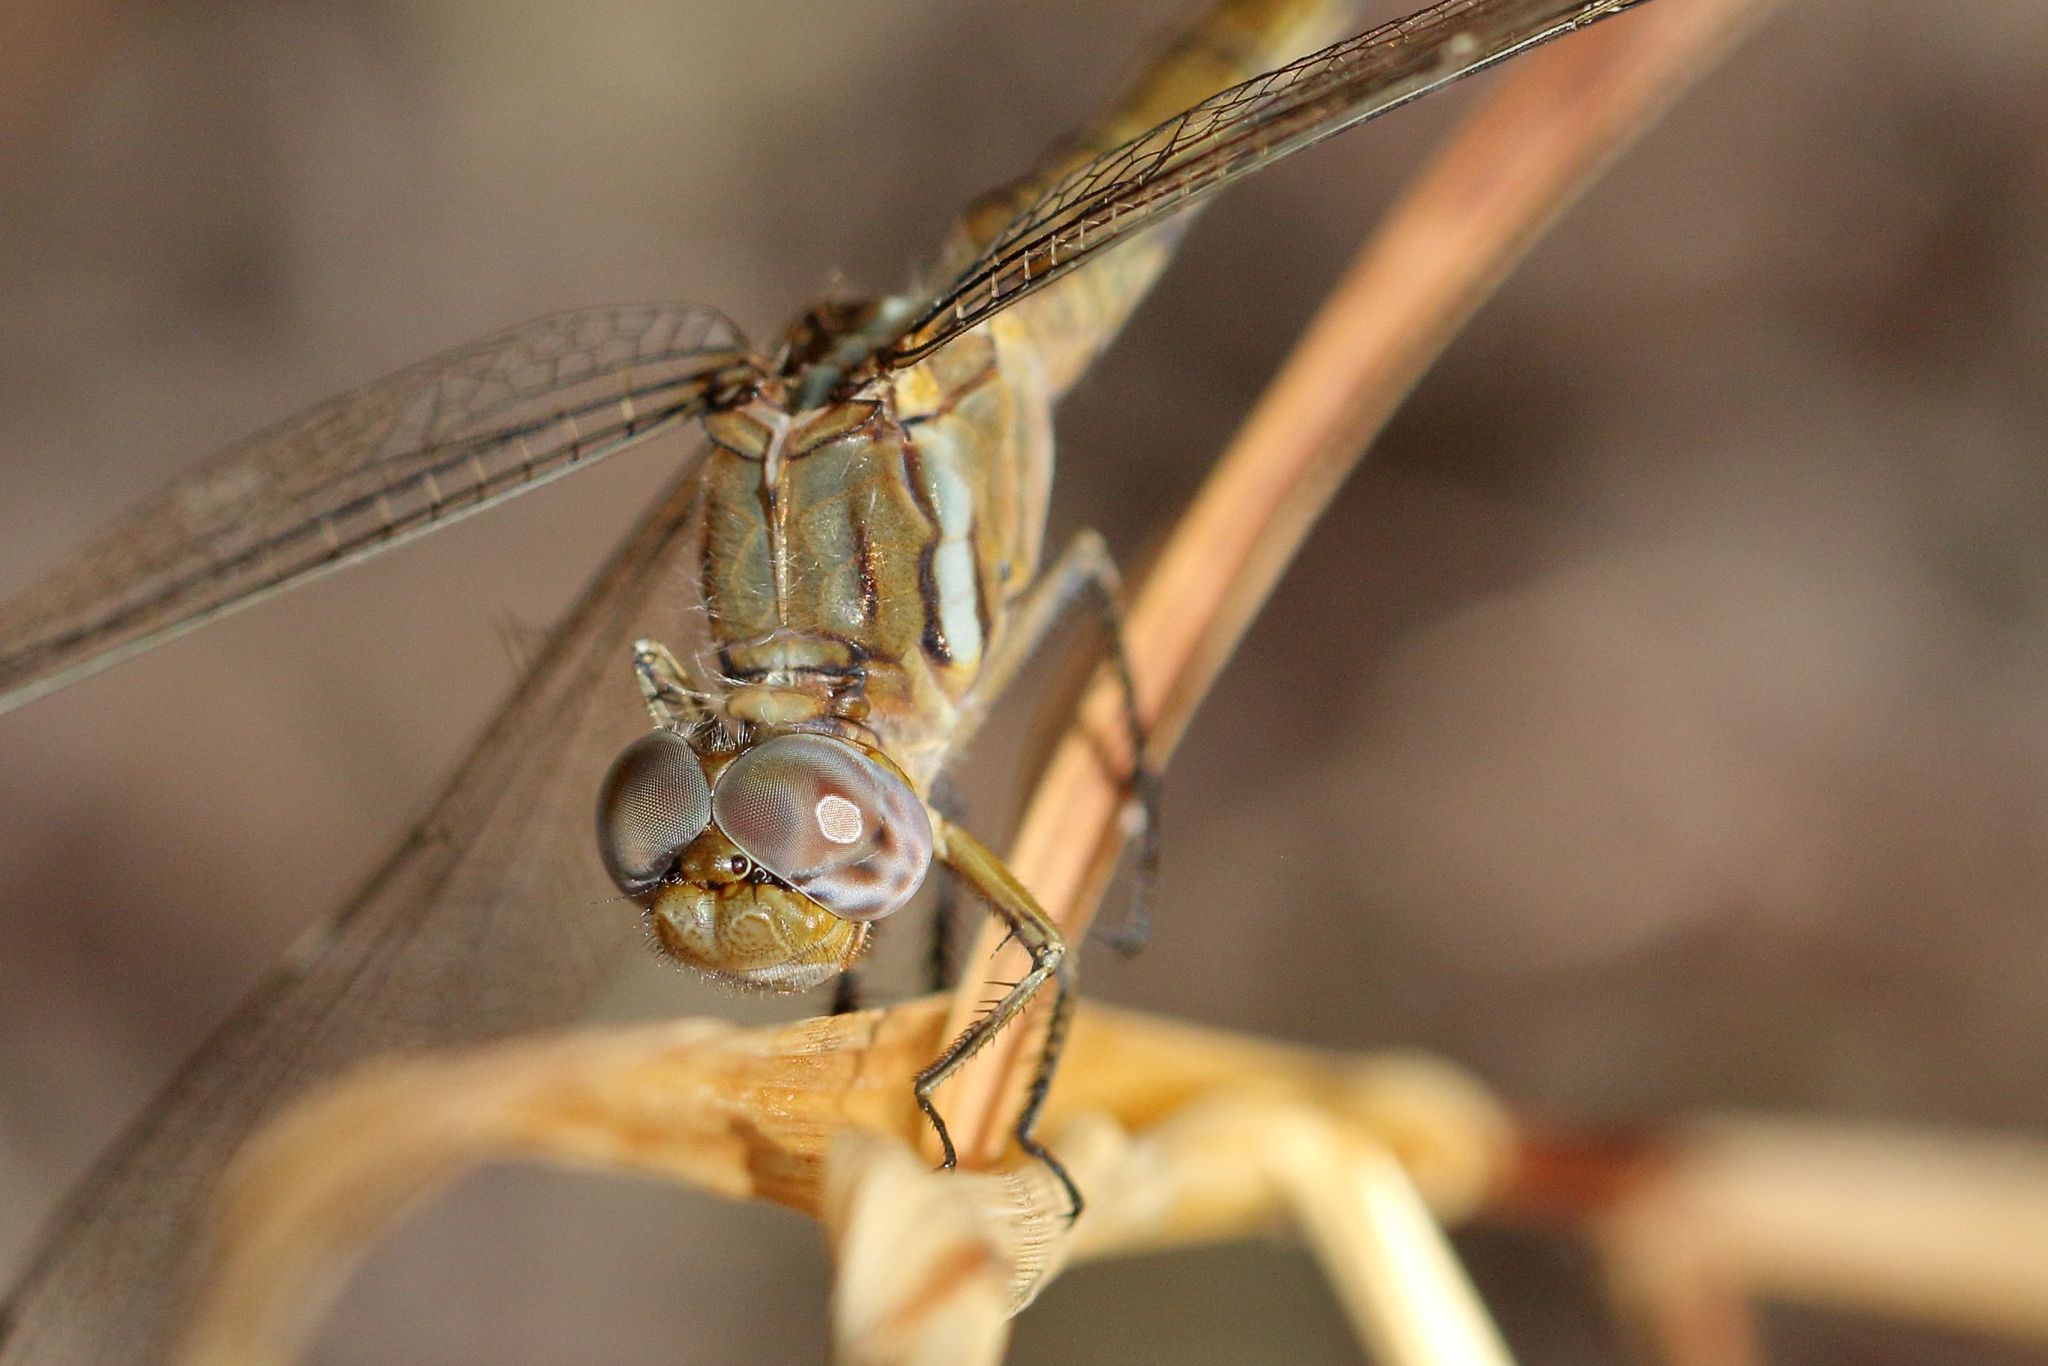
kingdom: Animalia
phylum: Arthropoda
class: Insecta
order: Odonata
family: Libellulidae
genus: Orthetrum
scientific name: Orthetrum chrysostigma
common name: Epaulet skimmer
